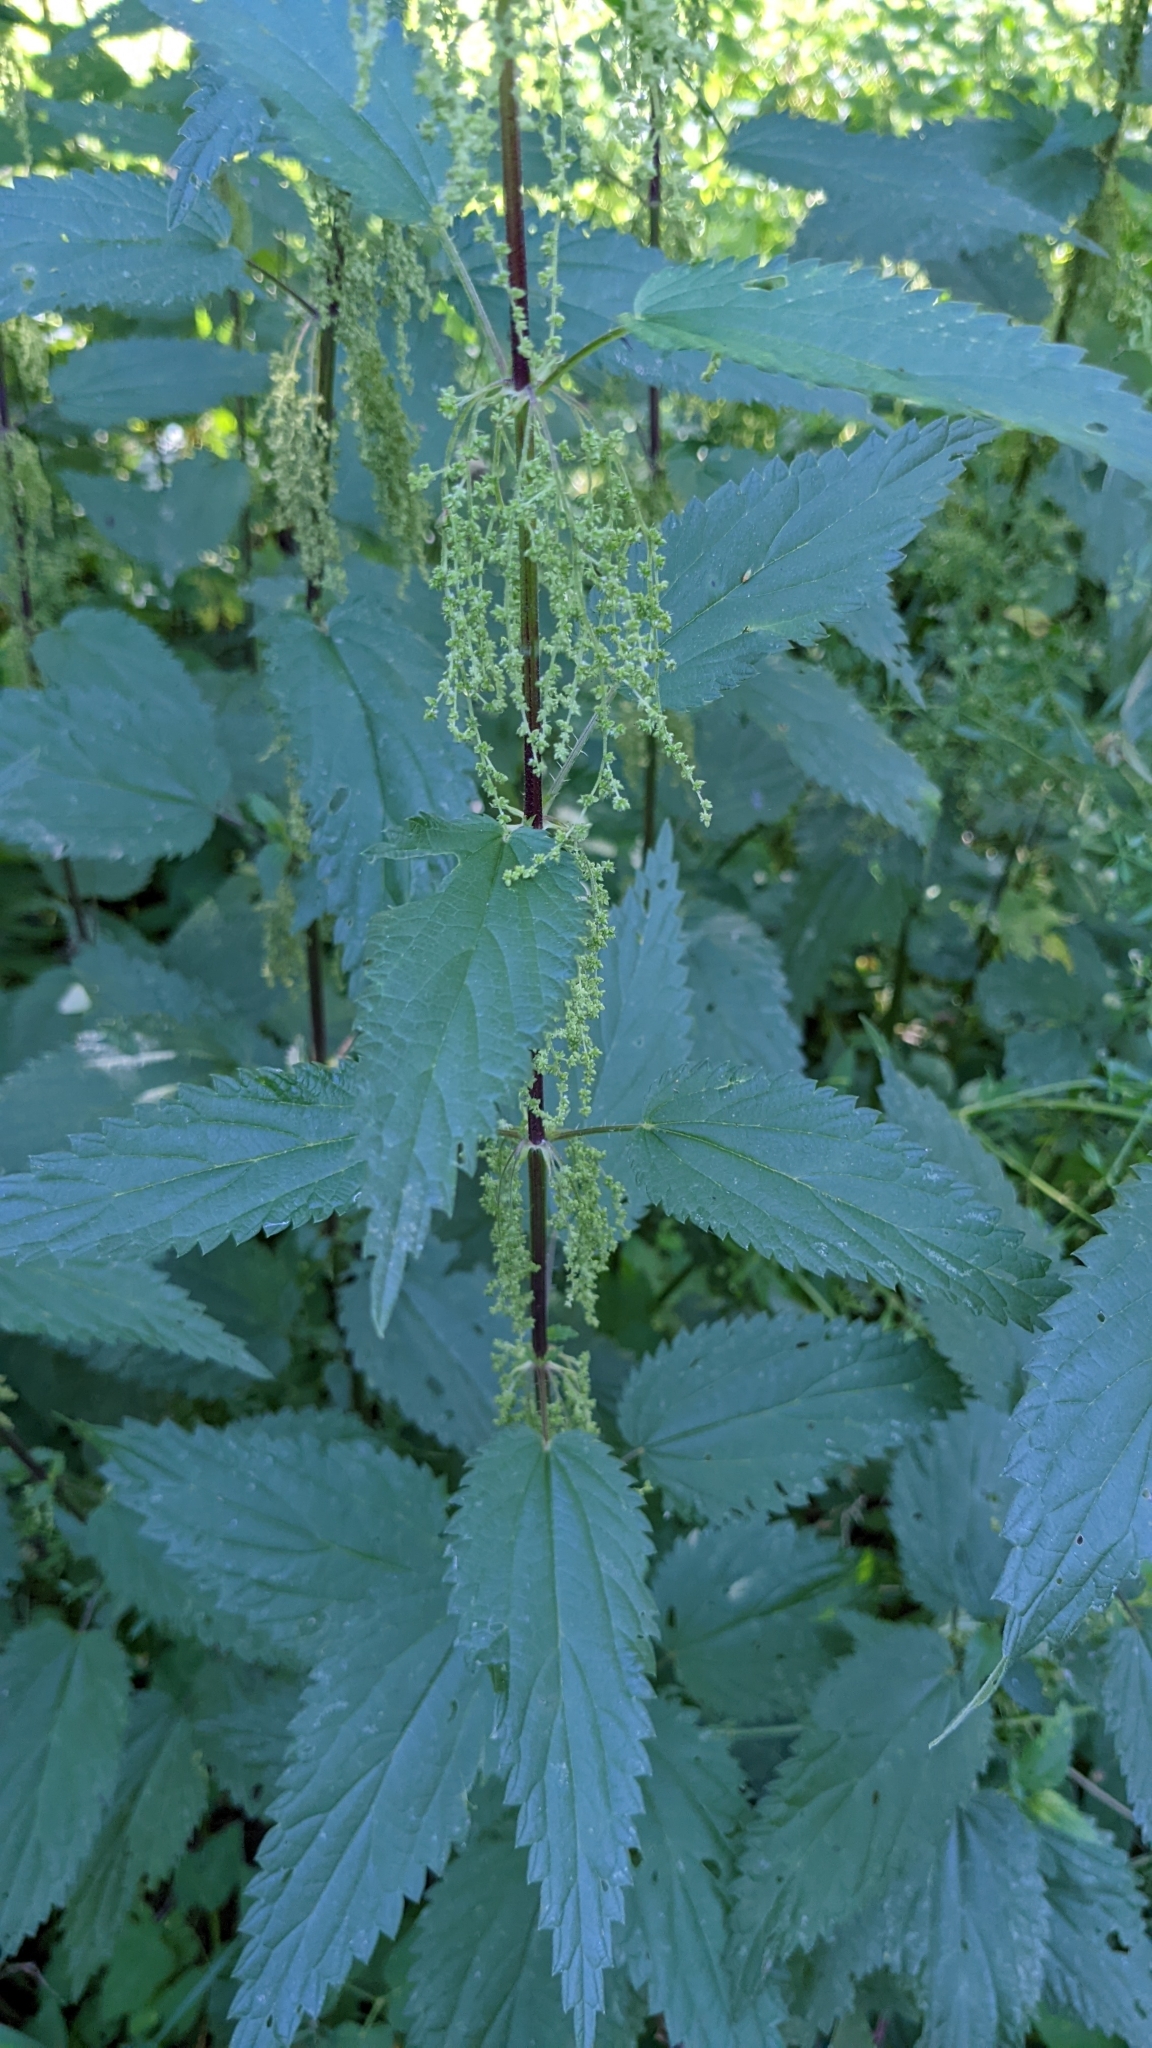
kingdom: Plantae
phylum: Tracheophyta
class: Magnoliopsida
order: Rosales
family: Urticaceae
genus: Urtica
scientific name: Urtica dioica
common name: Common nettle
